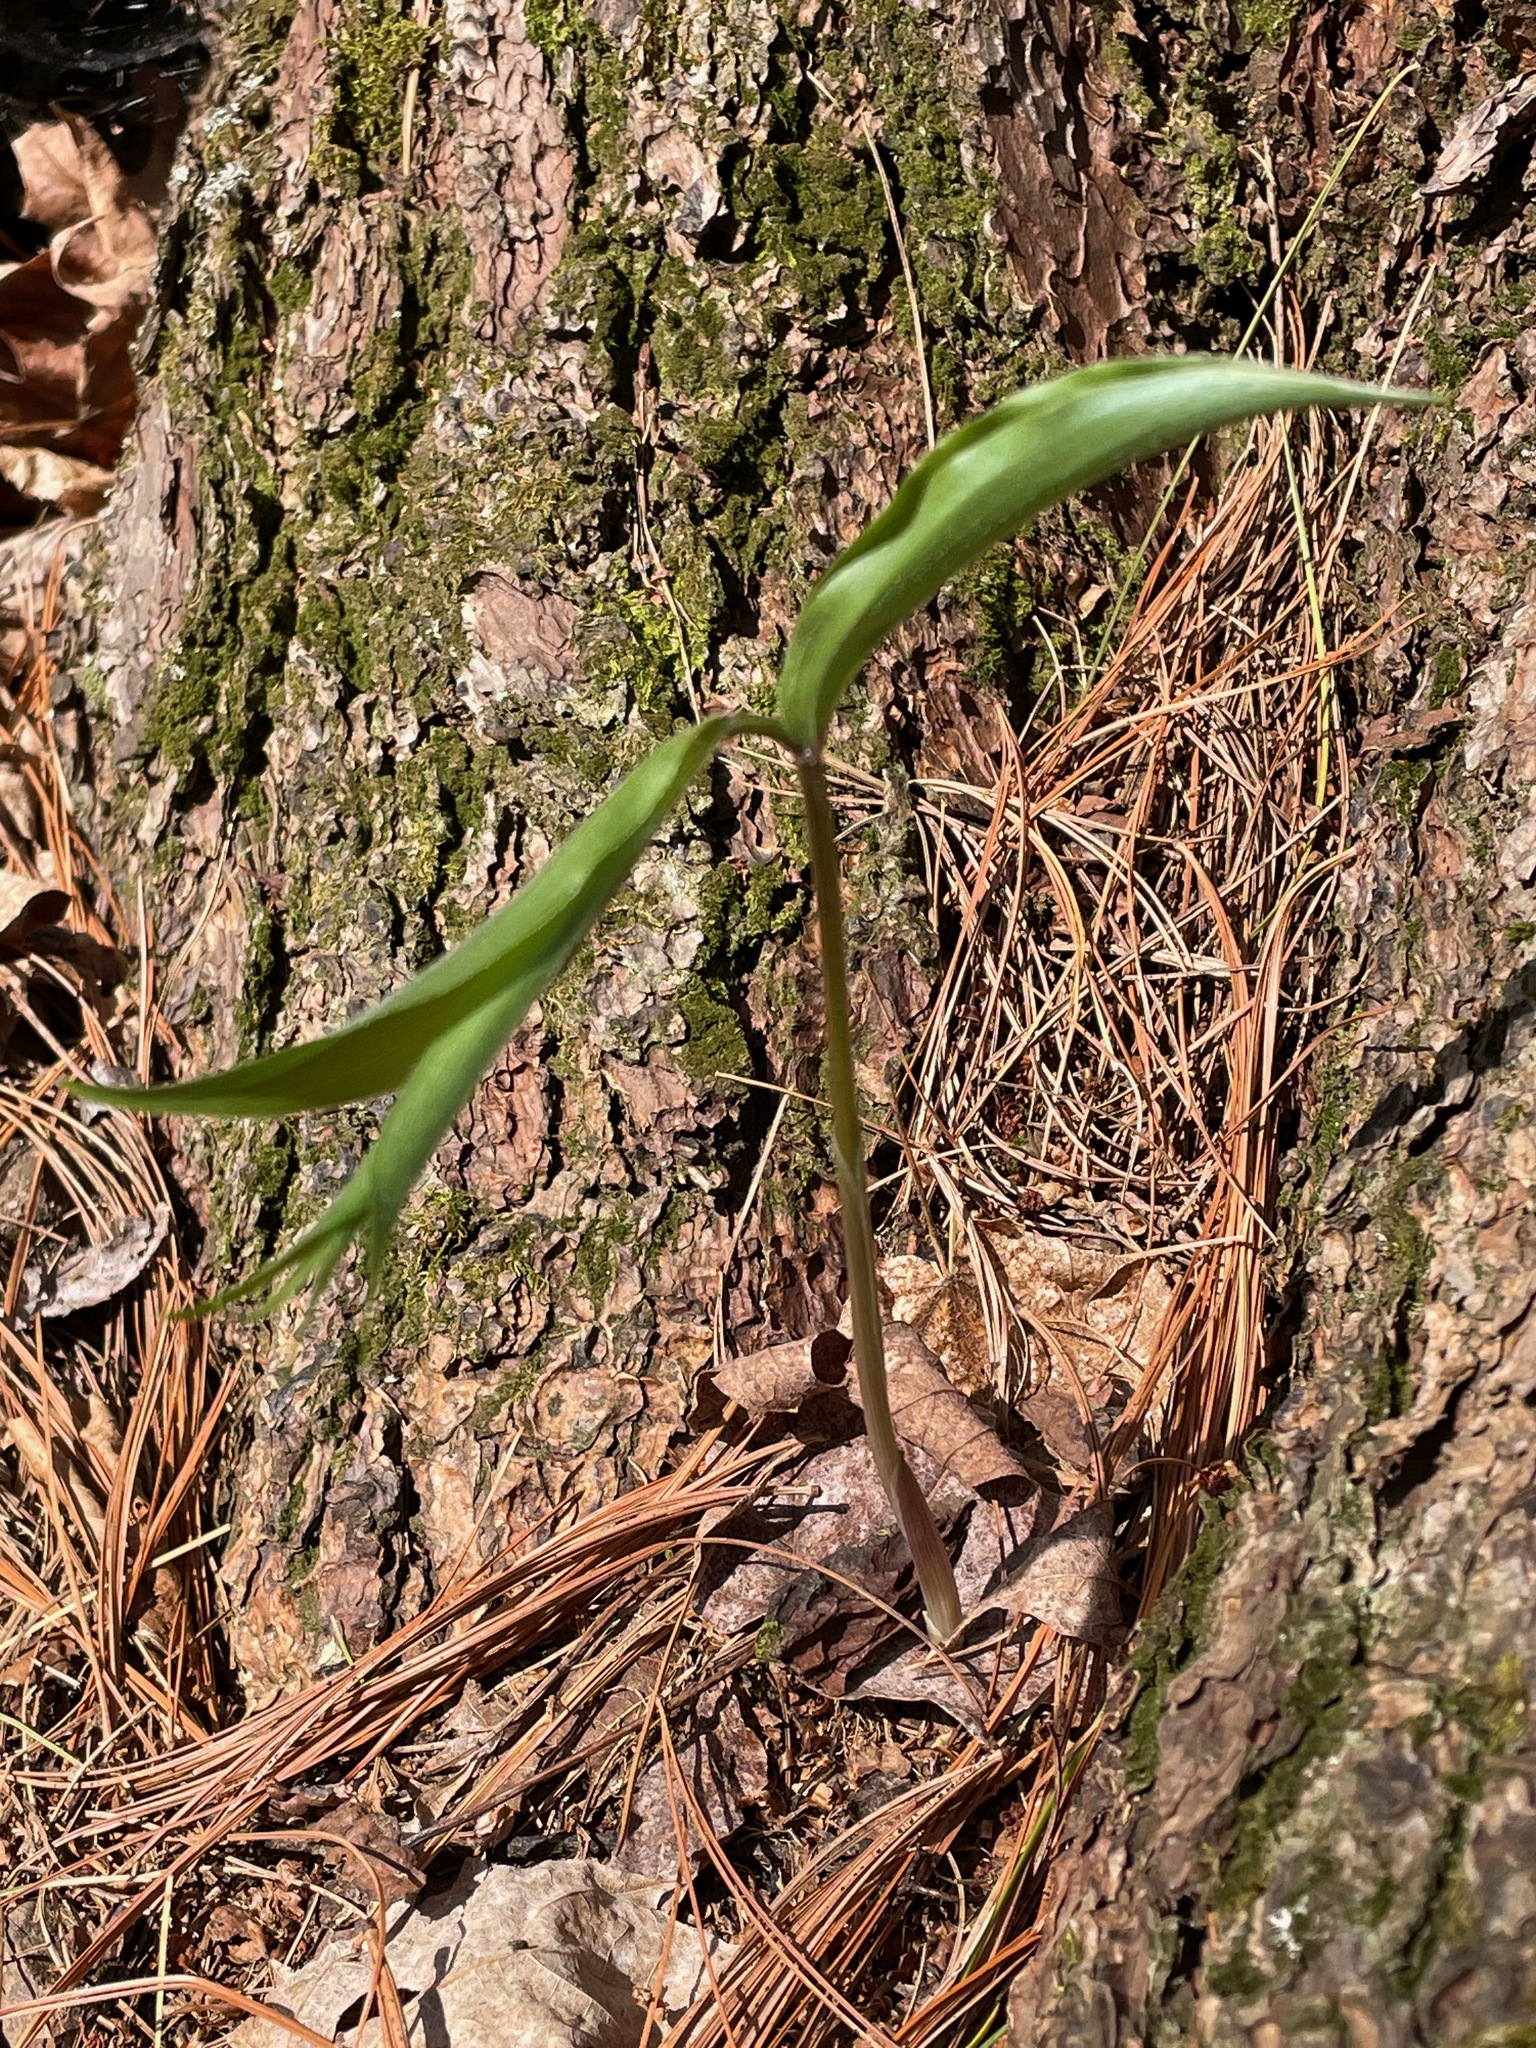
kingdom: Plantae
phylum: Tracheophyta
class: Liliopsida
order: Asparagales
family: Asparagaceae
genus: Maianthemum
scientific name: Maianthemum racemosum
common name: False spikenard
